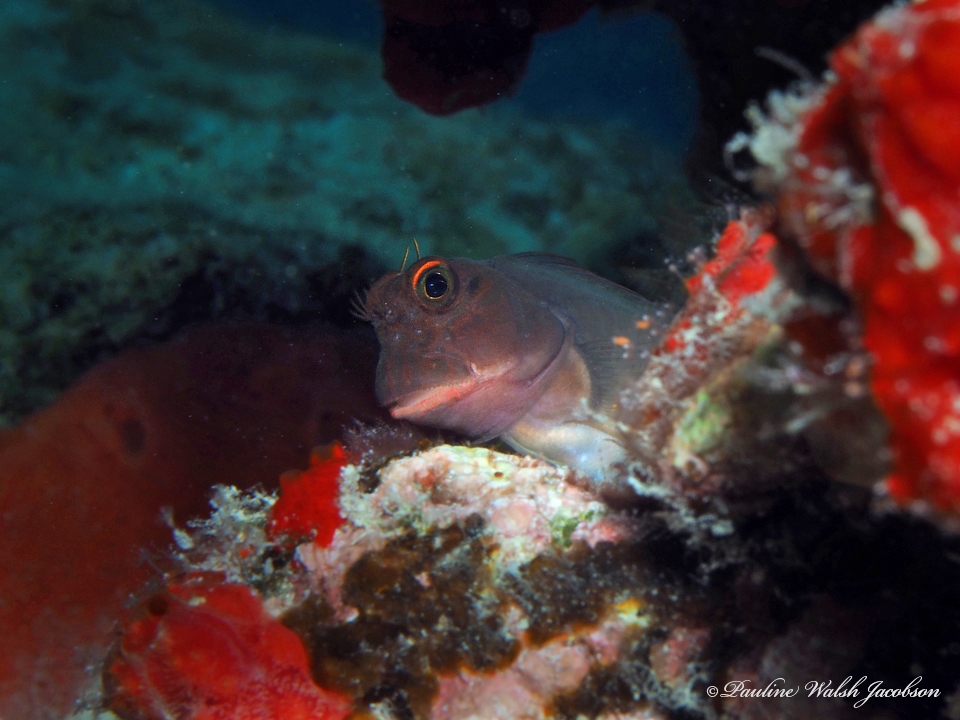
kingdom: Animalia
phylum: Chordata
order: Perciformes
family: Blenniidae
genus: Ophioblennius
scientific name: Ophioblennius macclurei
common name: Redlip blenny
